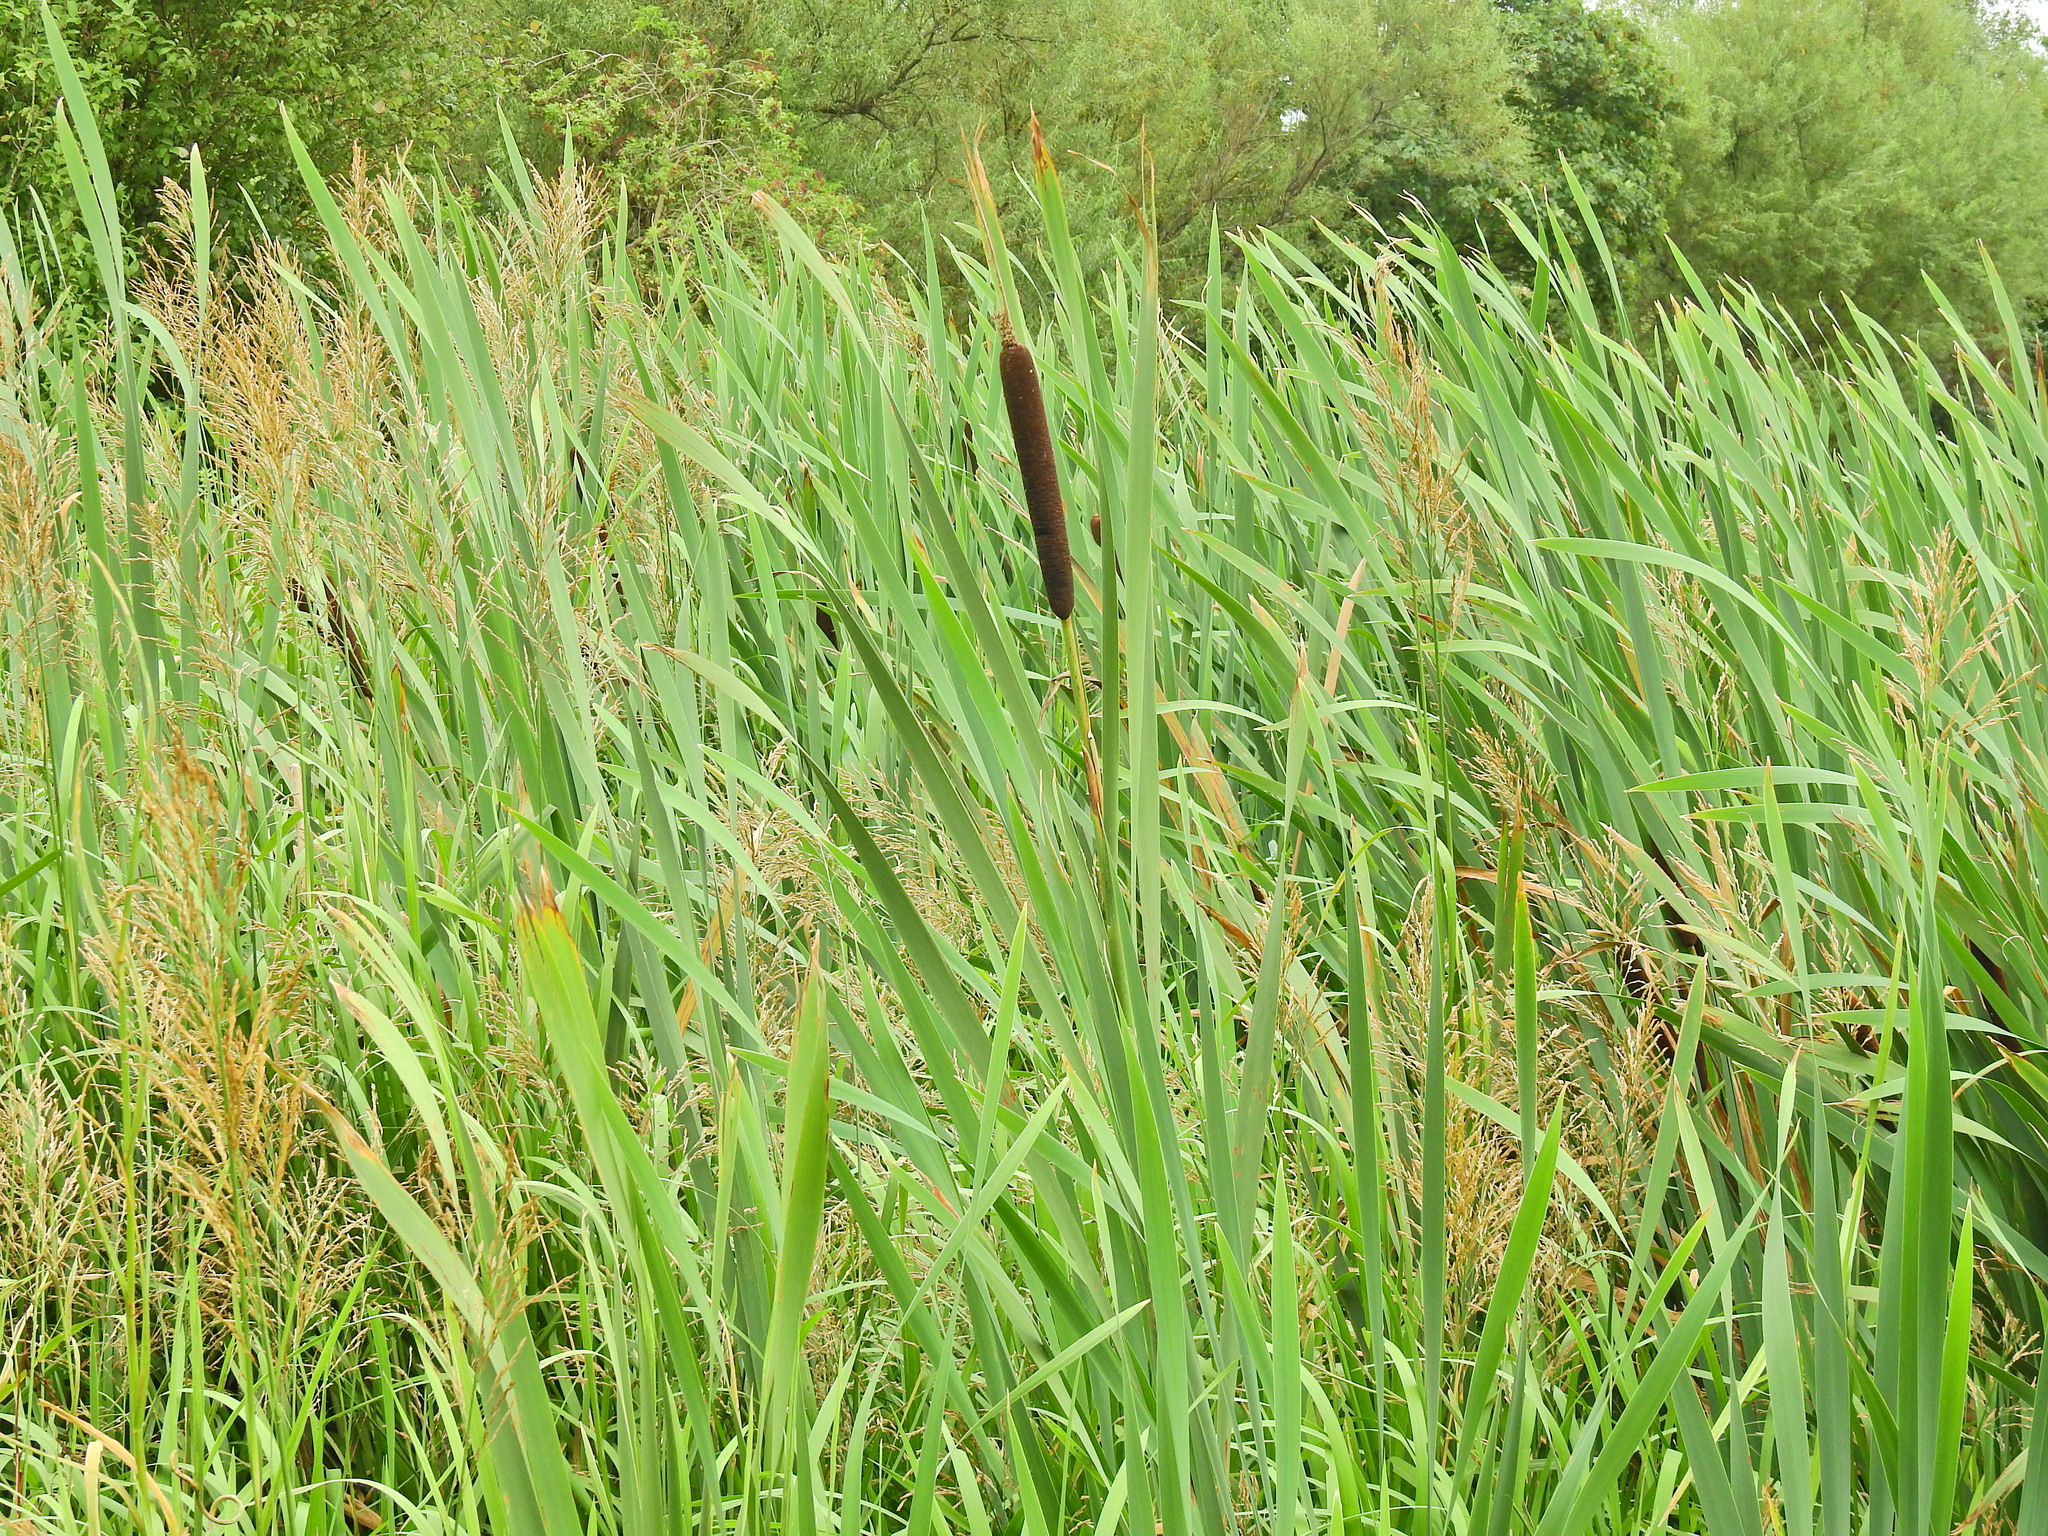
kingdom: Plantae
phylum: Tracheophyta
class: Liliopsida
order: Poales
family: Typhaceae
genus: Typha
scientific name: Typha latifolia
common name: Broadleaf cattail
